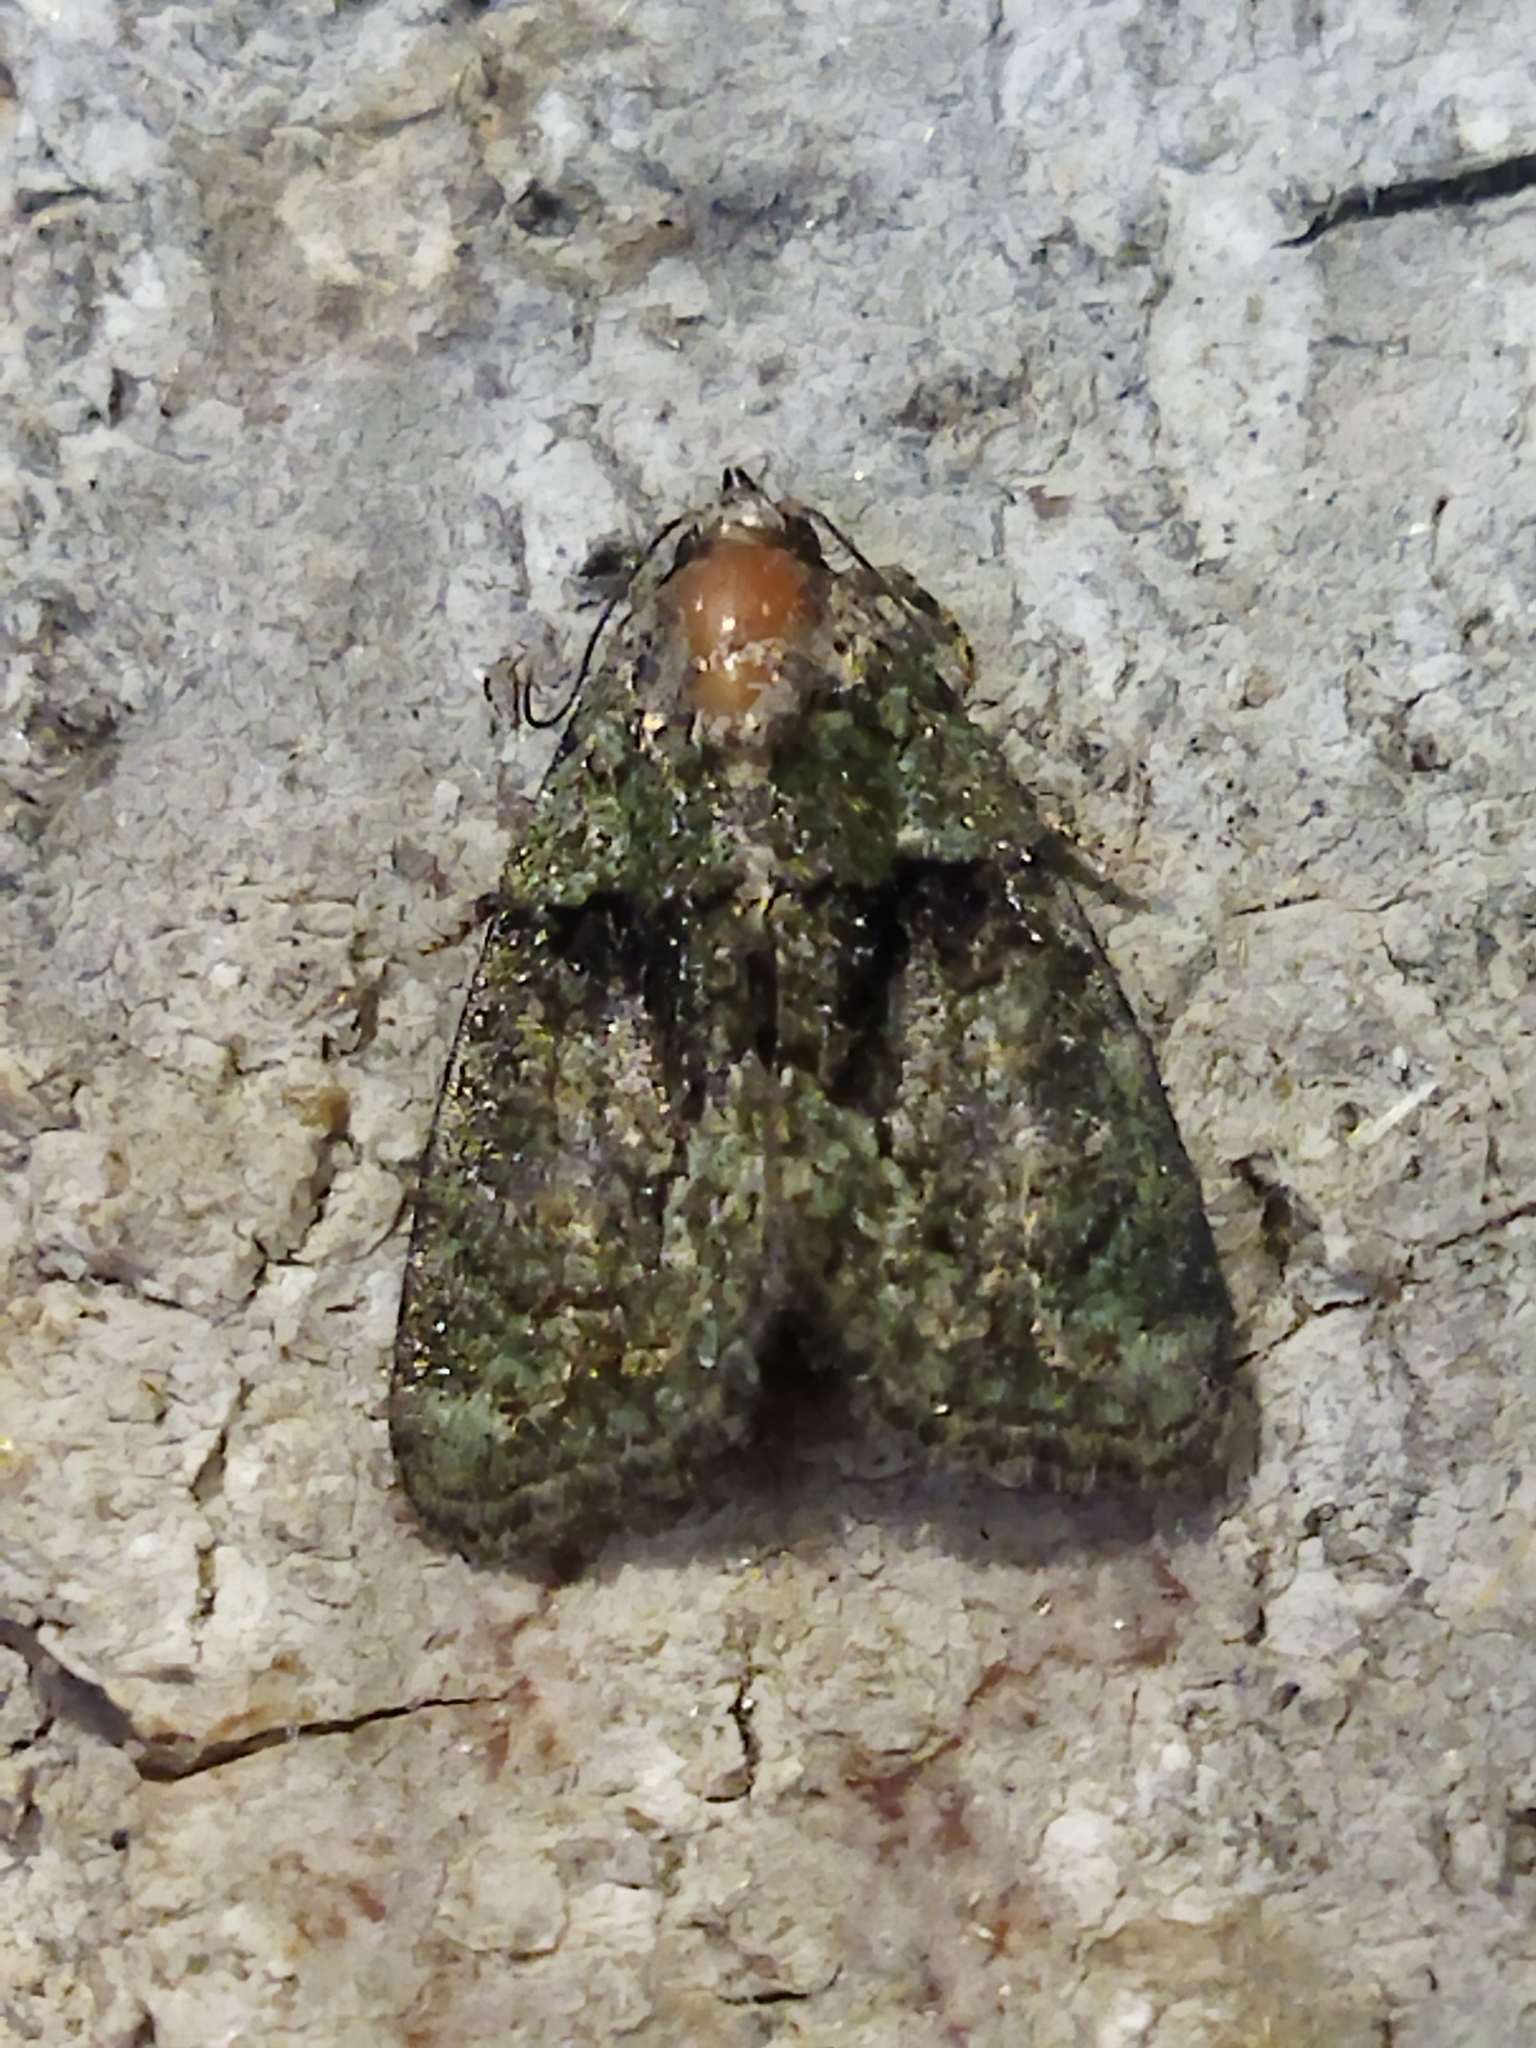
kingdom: Animalia
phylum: Arthropoda
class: Insecta
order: Lepidoptera
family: Noctuidae
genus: Cryphia
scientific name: Cryphia
